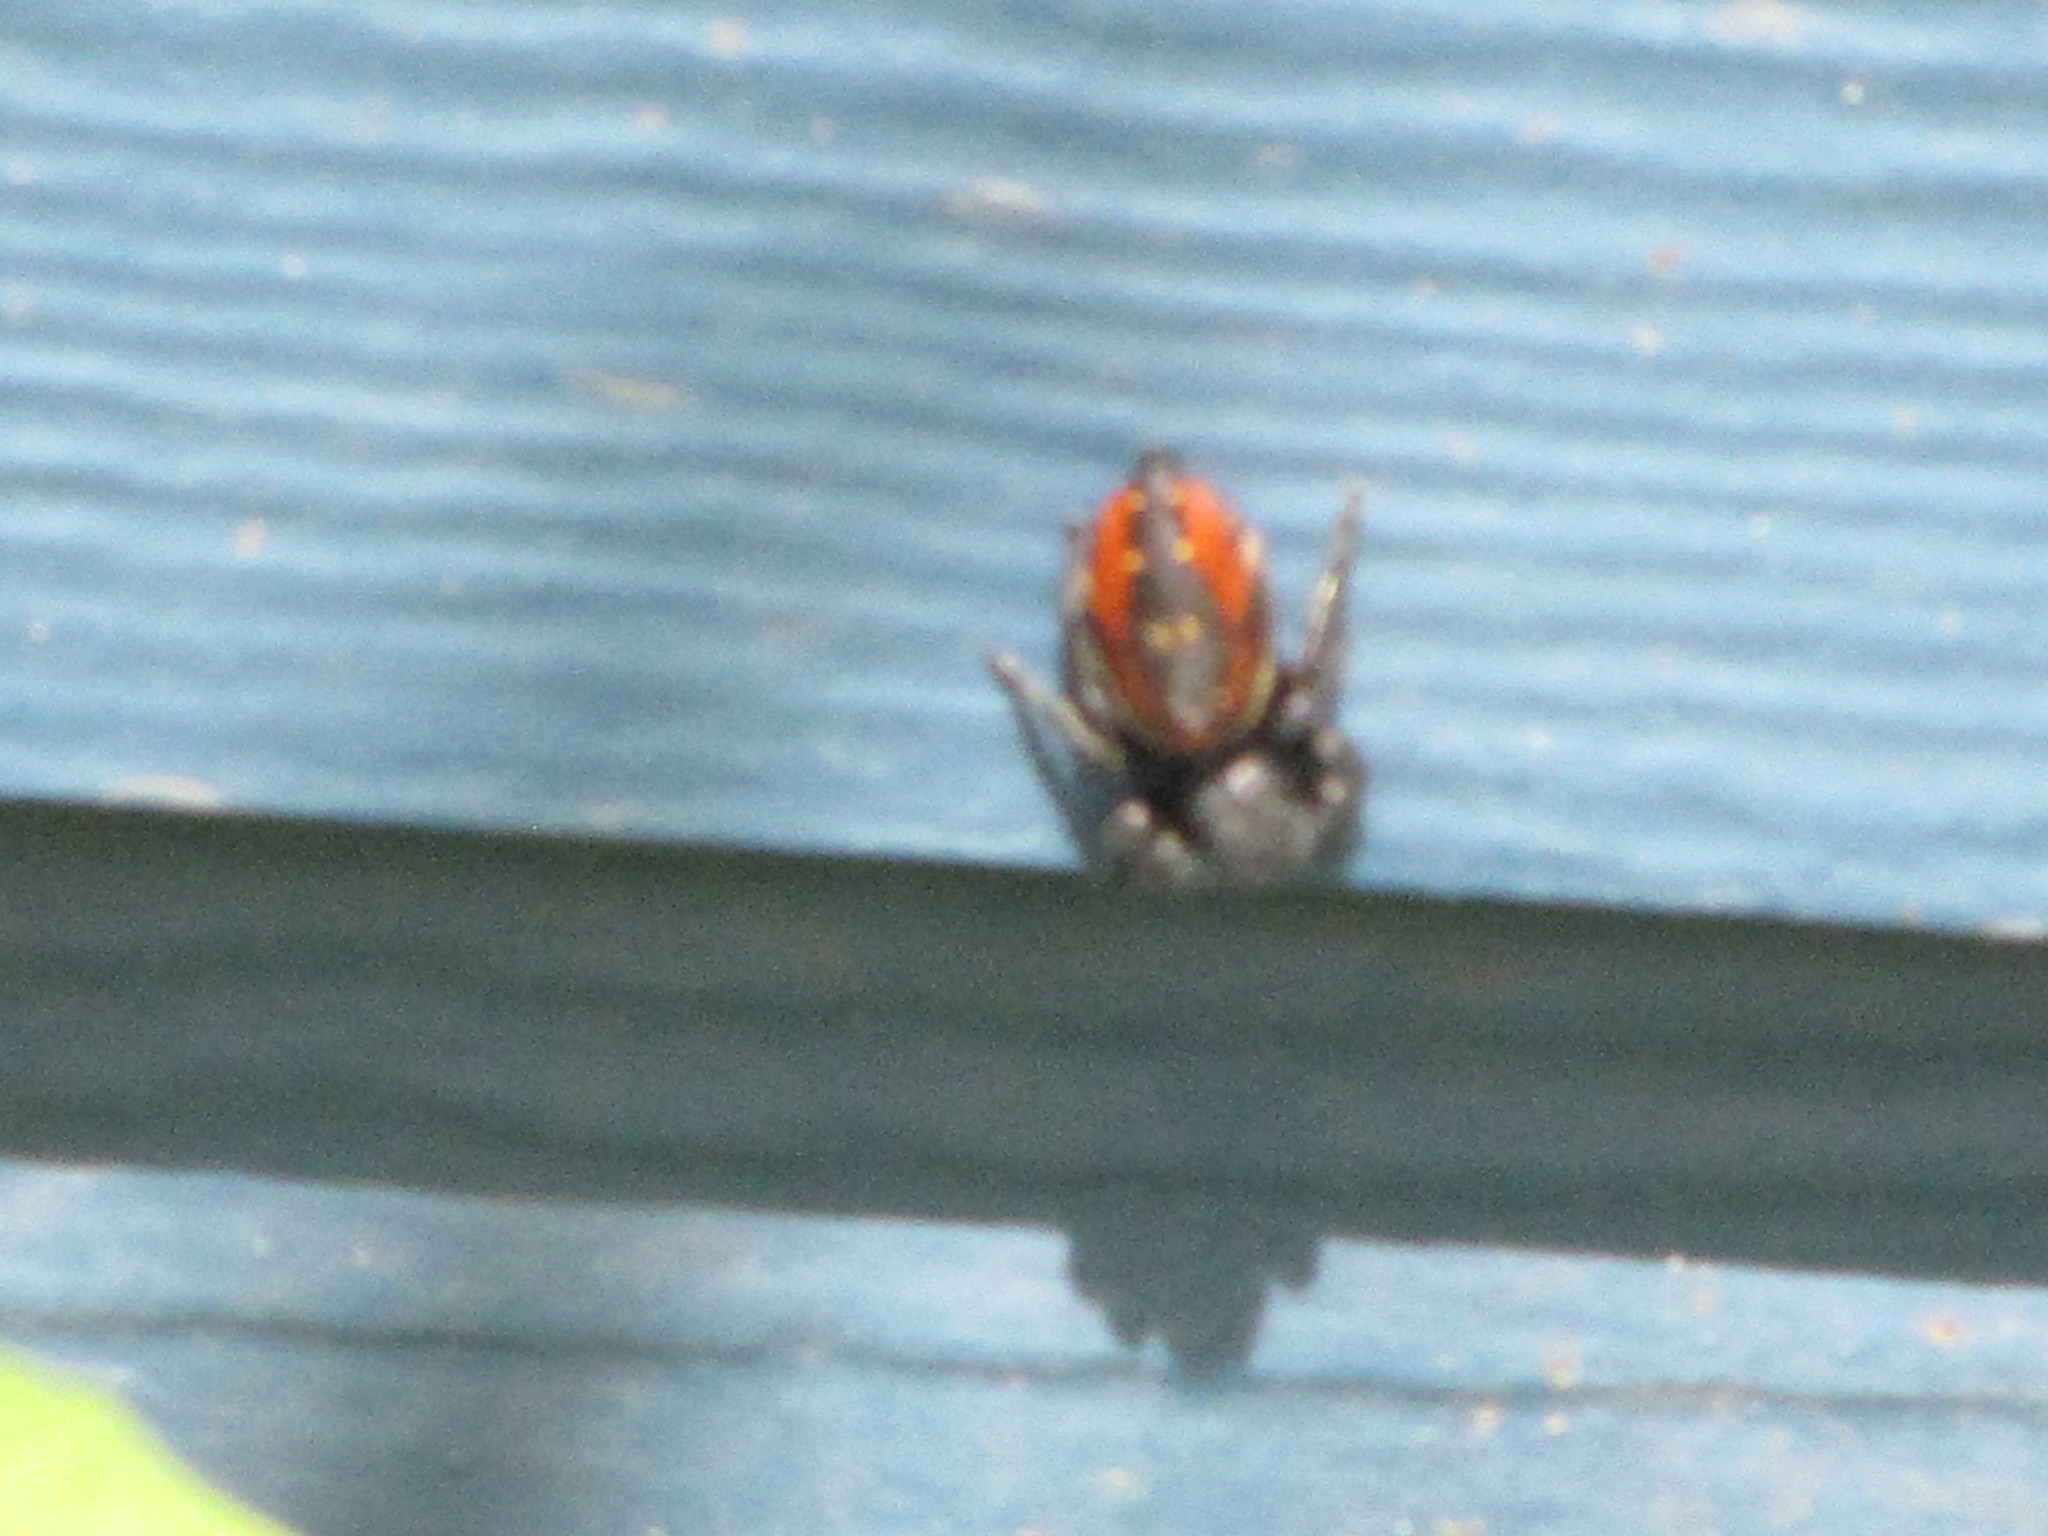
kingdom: Animalia
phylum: Arthropoda
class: Arachnida
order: Araneae
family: Salticidae
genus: Phidippus
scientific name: Phidippus johnsoni
